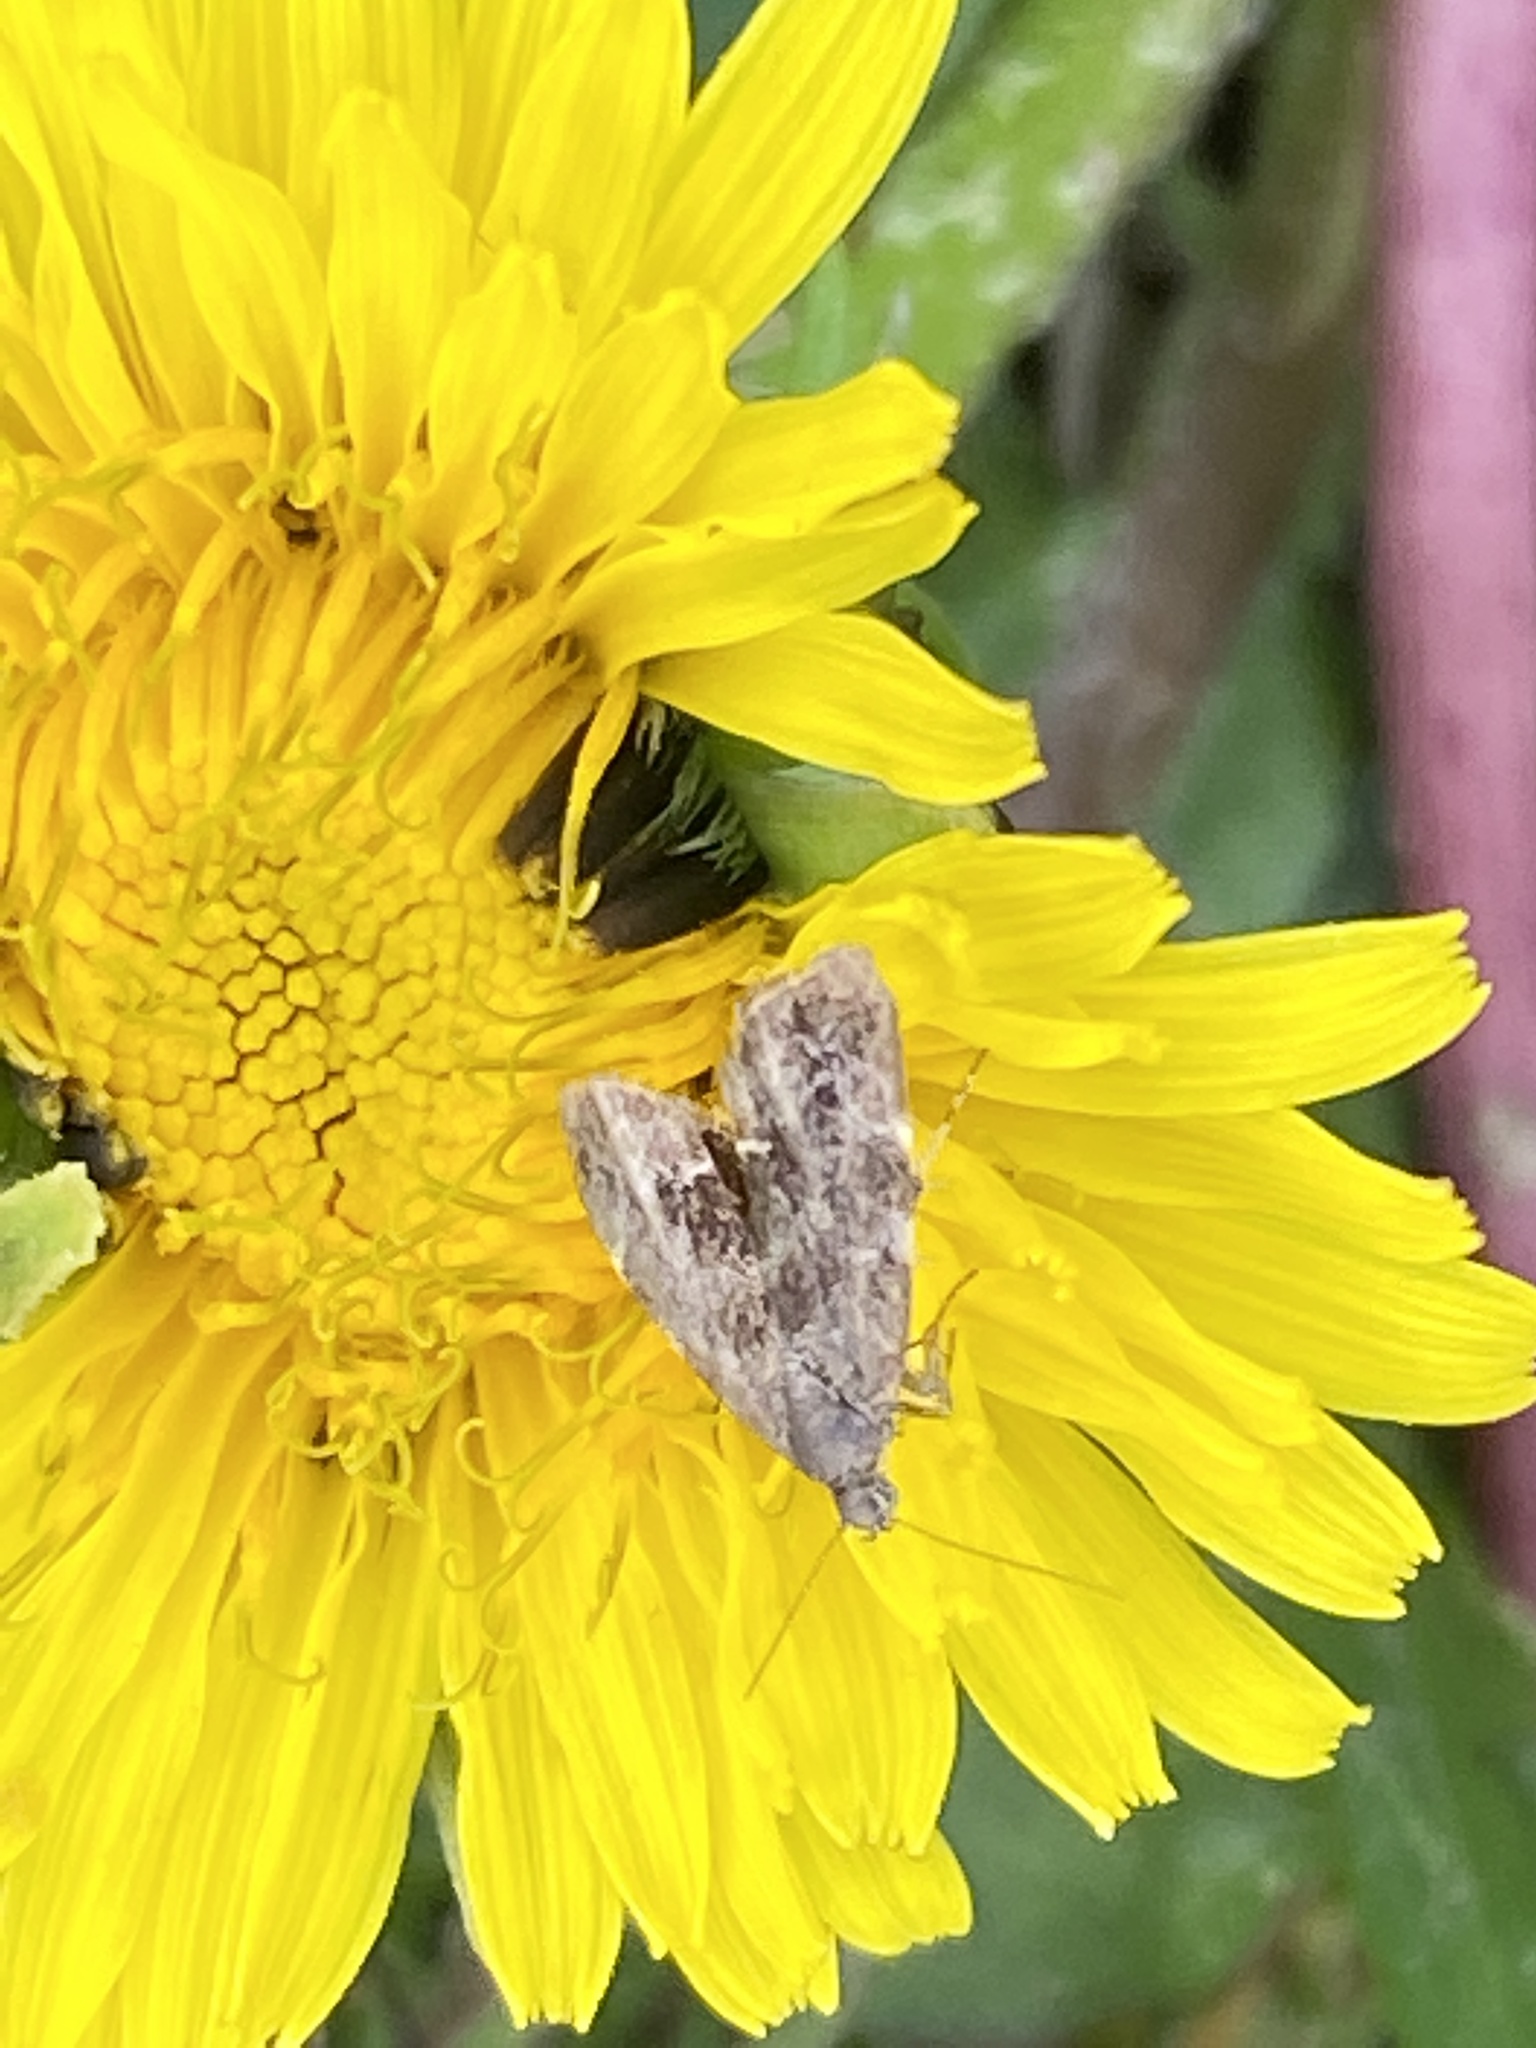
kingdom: Animalia
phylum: Arthropoda
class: Insecta
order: Lepidoptera
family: Choreutidae
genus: Anthophila
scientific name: Anthophila fabriciana
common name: Nettle-tap
